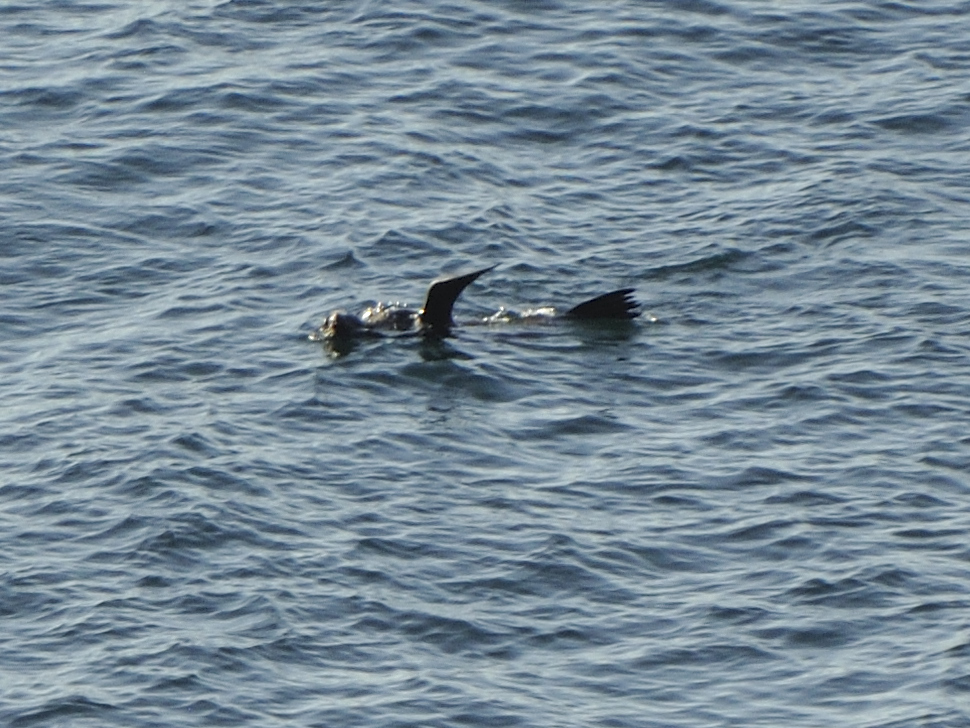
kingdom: Animalia
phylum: Chordata
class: Mammalia
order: Carnivora
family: Otariidae
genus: Arctocephalus
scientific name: Arctocephalus pusillus
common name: Brown fur seal
